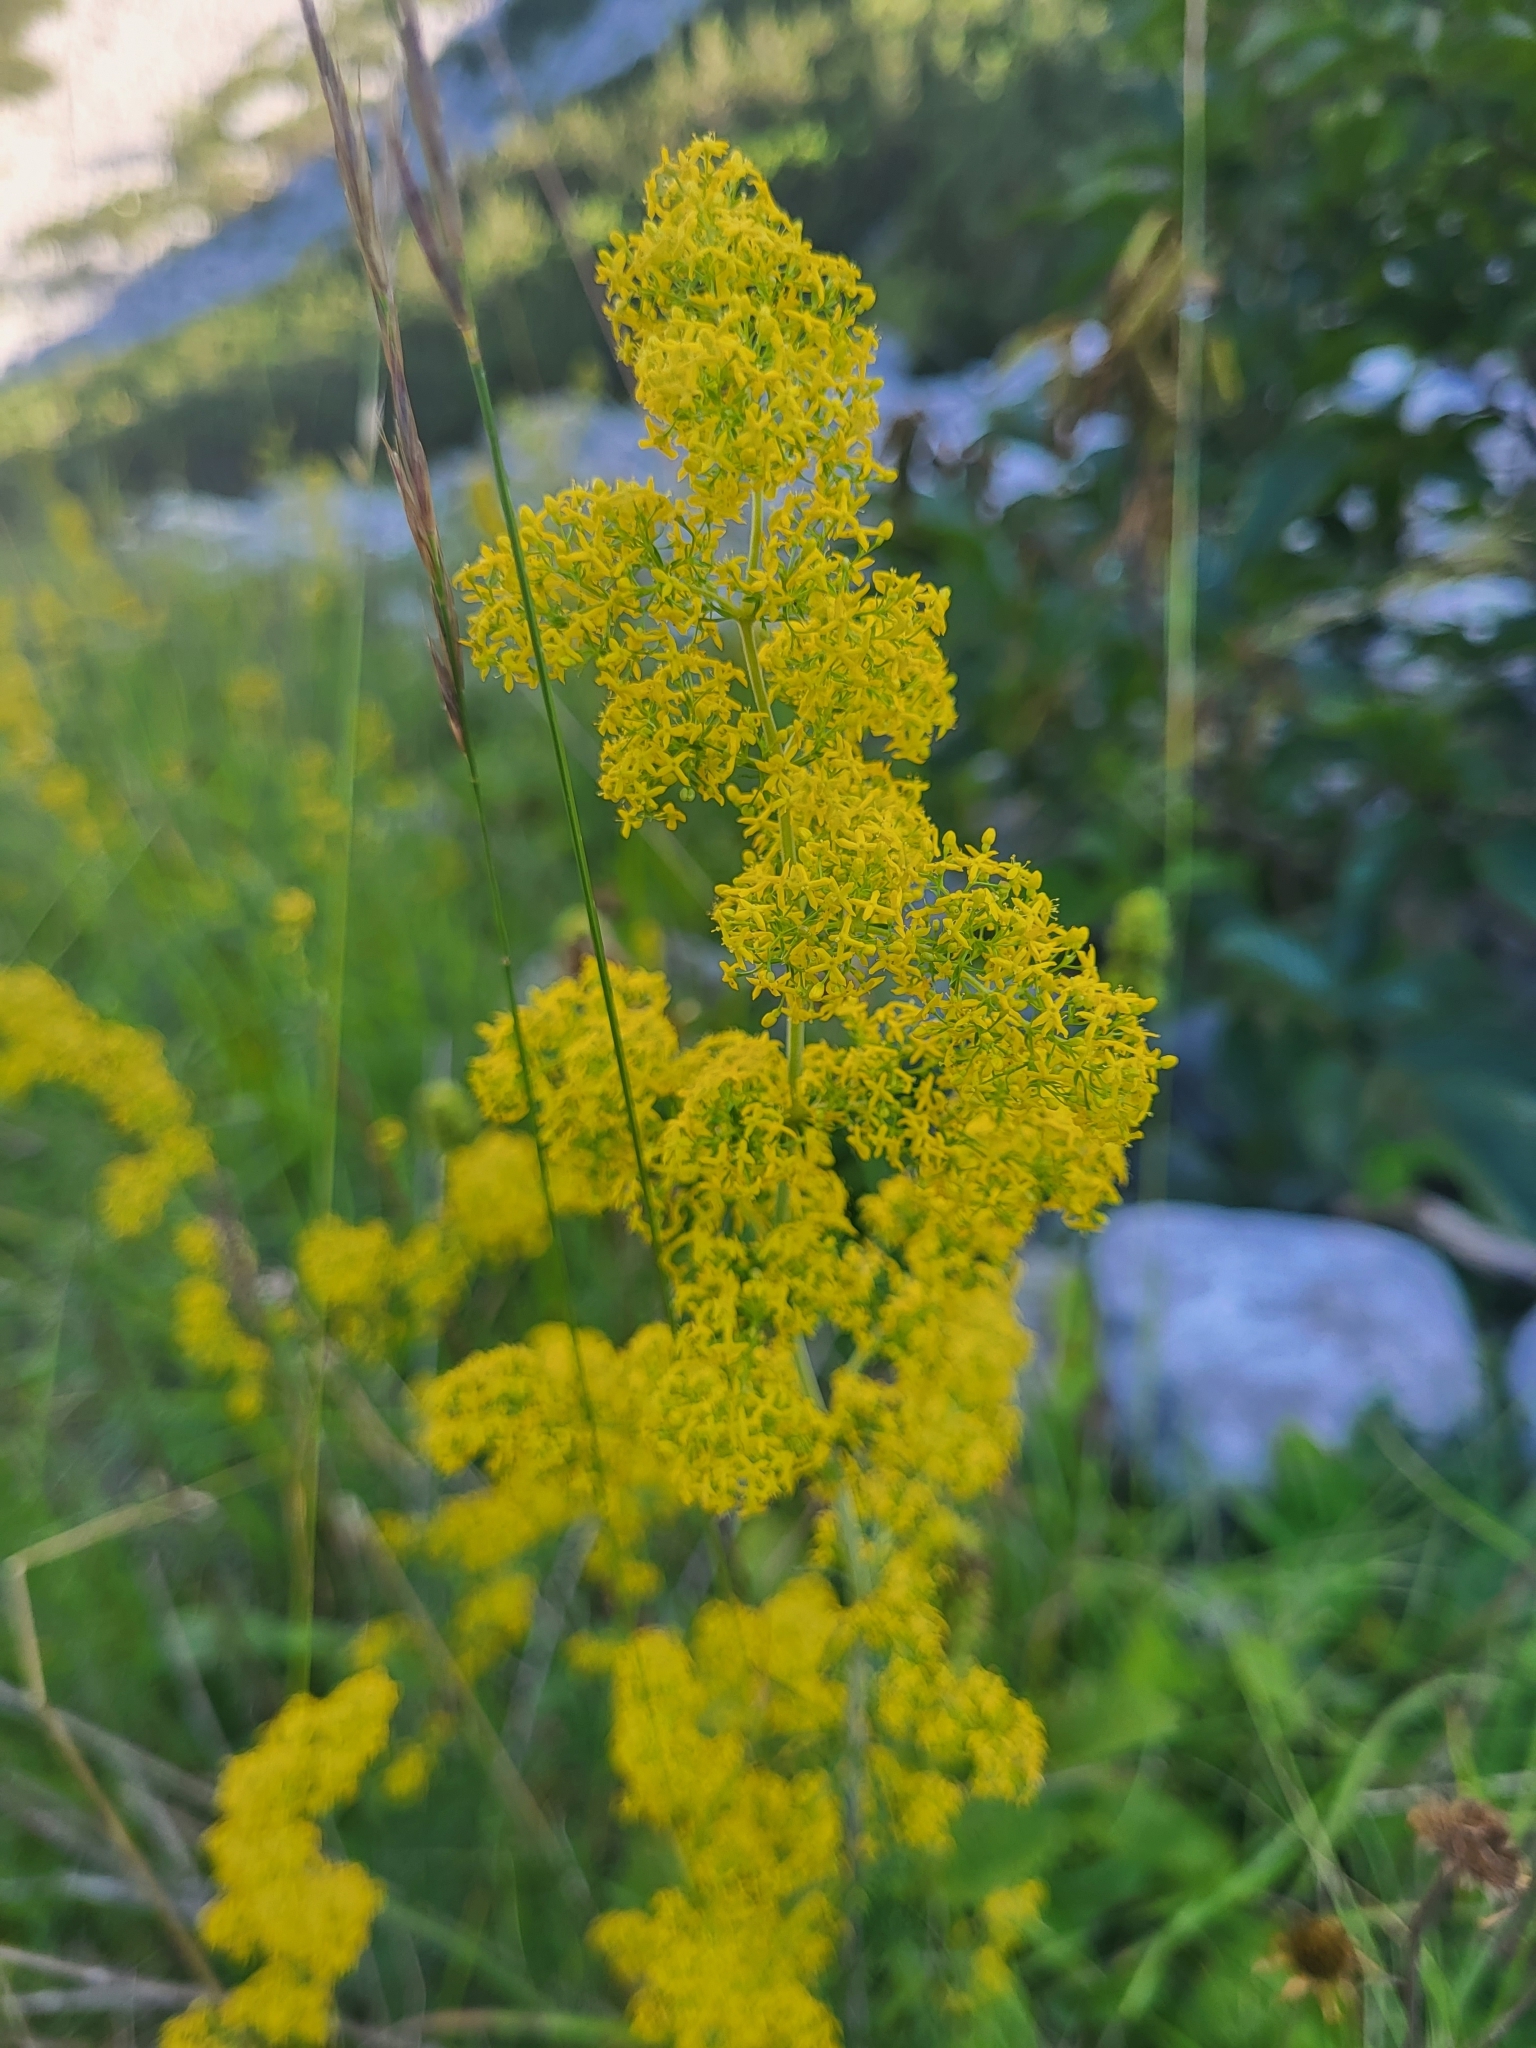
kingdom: Plantae
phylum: Tracheophyta
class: Magnoliopsida
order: Gentianales
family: Rubiaceae
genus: Galium
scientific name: Galium verum
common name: Lady's bedstraw
